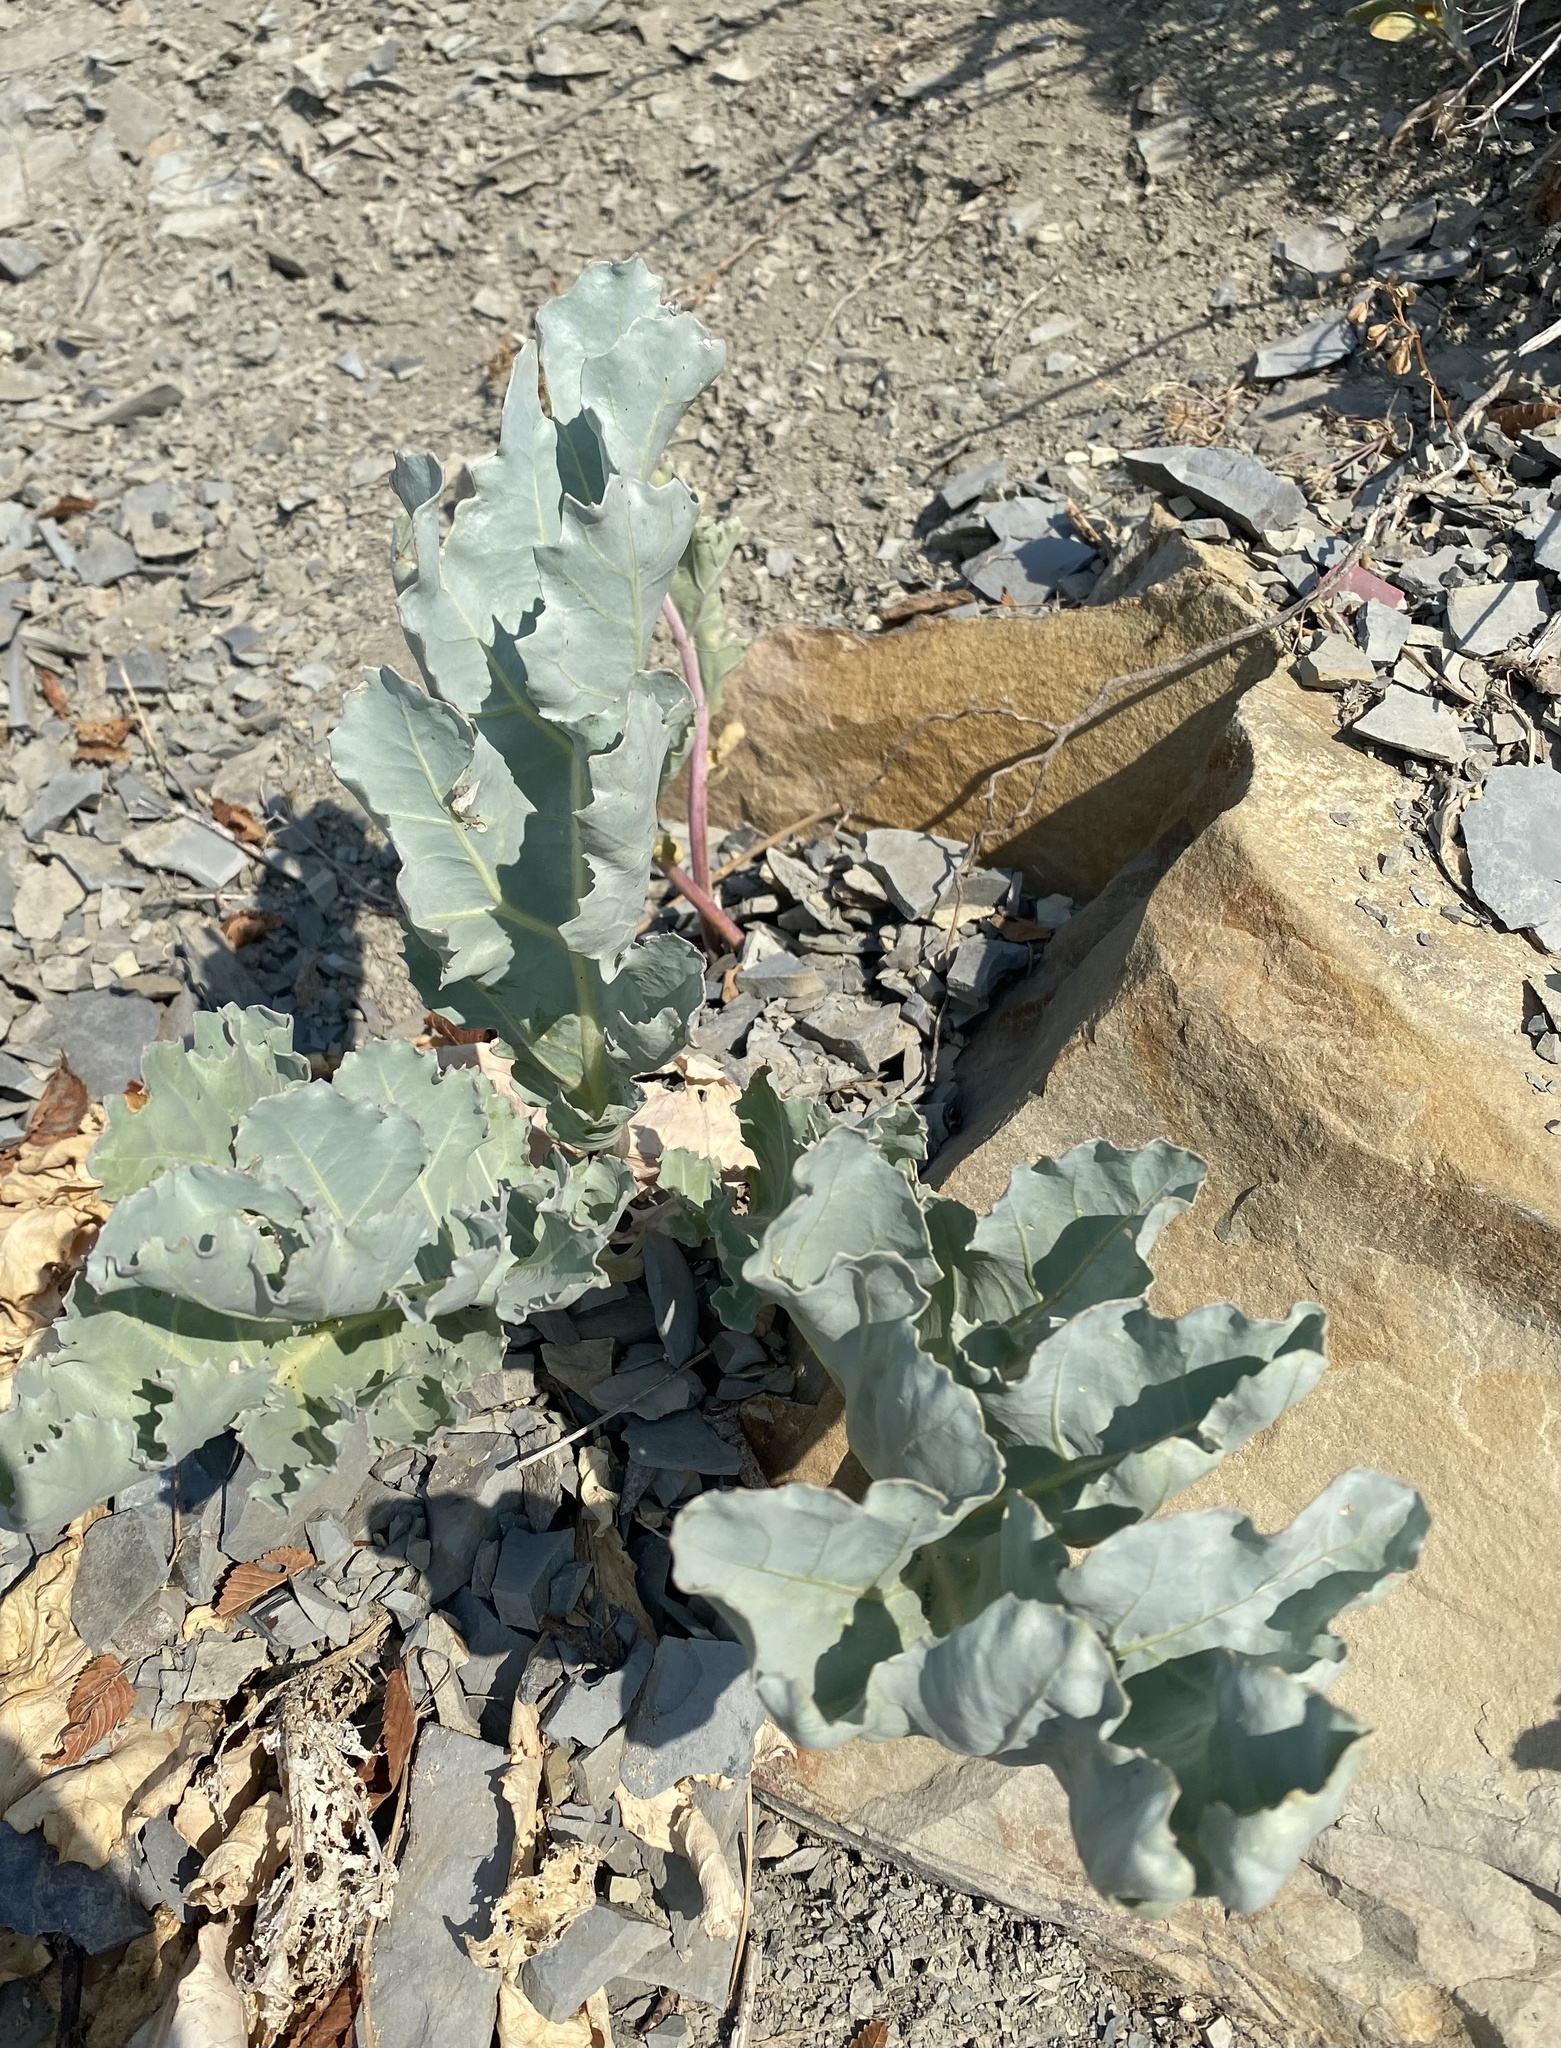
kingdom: Plantae
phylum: Tracheophyta
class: Magnoliopsida
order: Brassicales
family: Brassicaceae
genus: Crambe
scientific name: Crambe maritima
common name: Sea-kale
